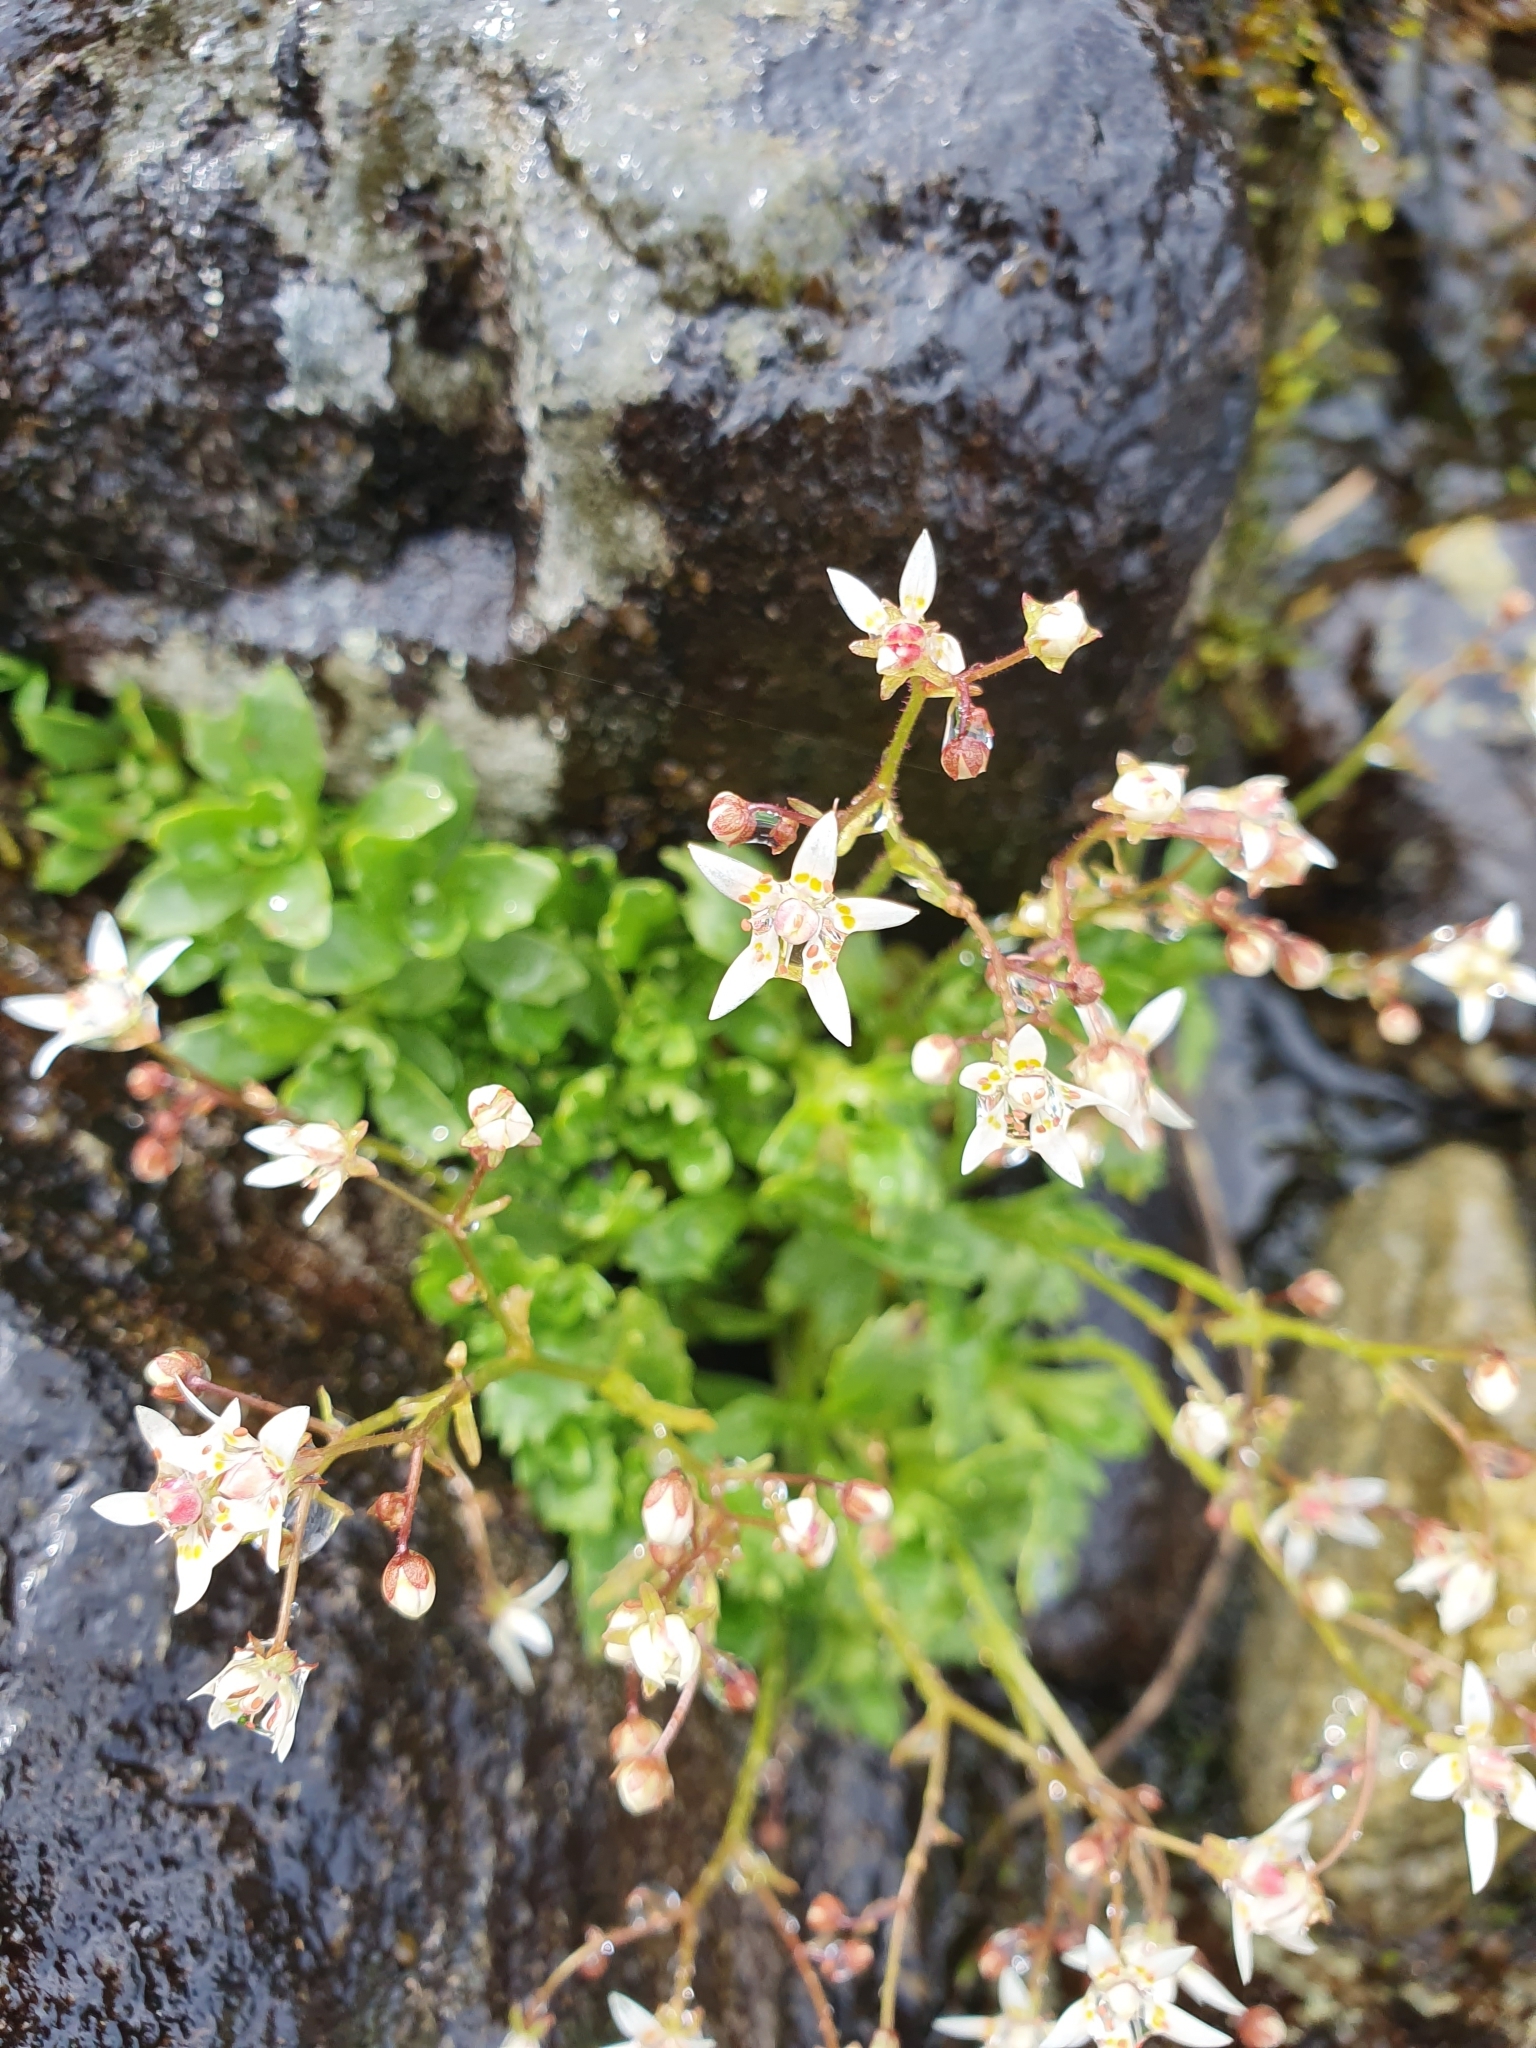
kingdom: Plantae
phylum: Tracheophyta
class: Magnoliopsida
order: Saxifragales
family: Saxifragaceae
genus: Micranthes
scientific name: Micranthes stellaris
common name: Starry saxifrage
